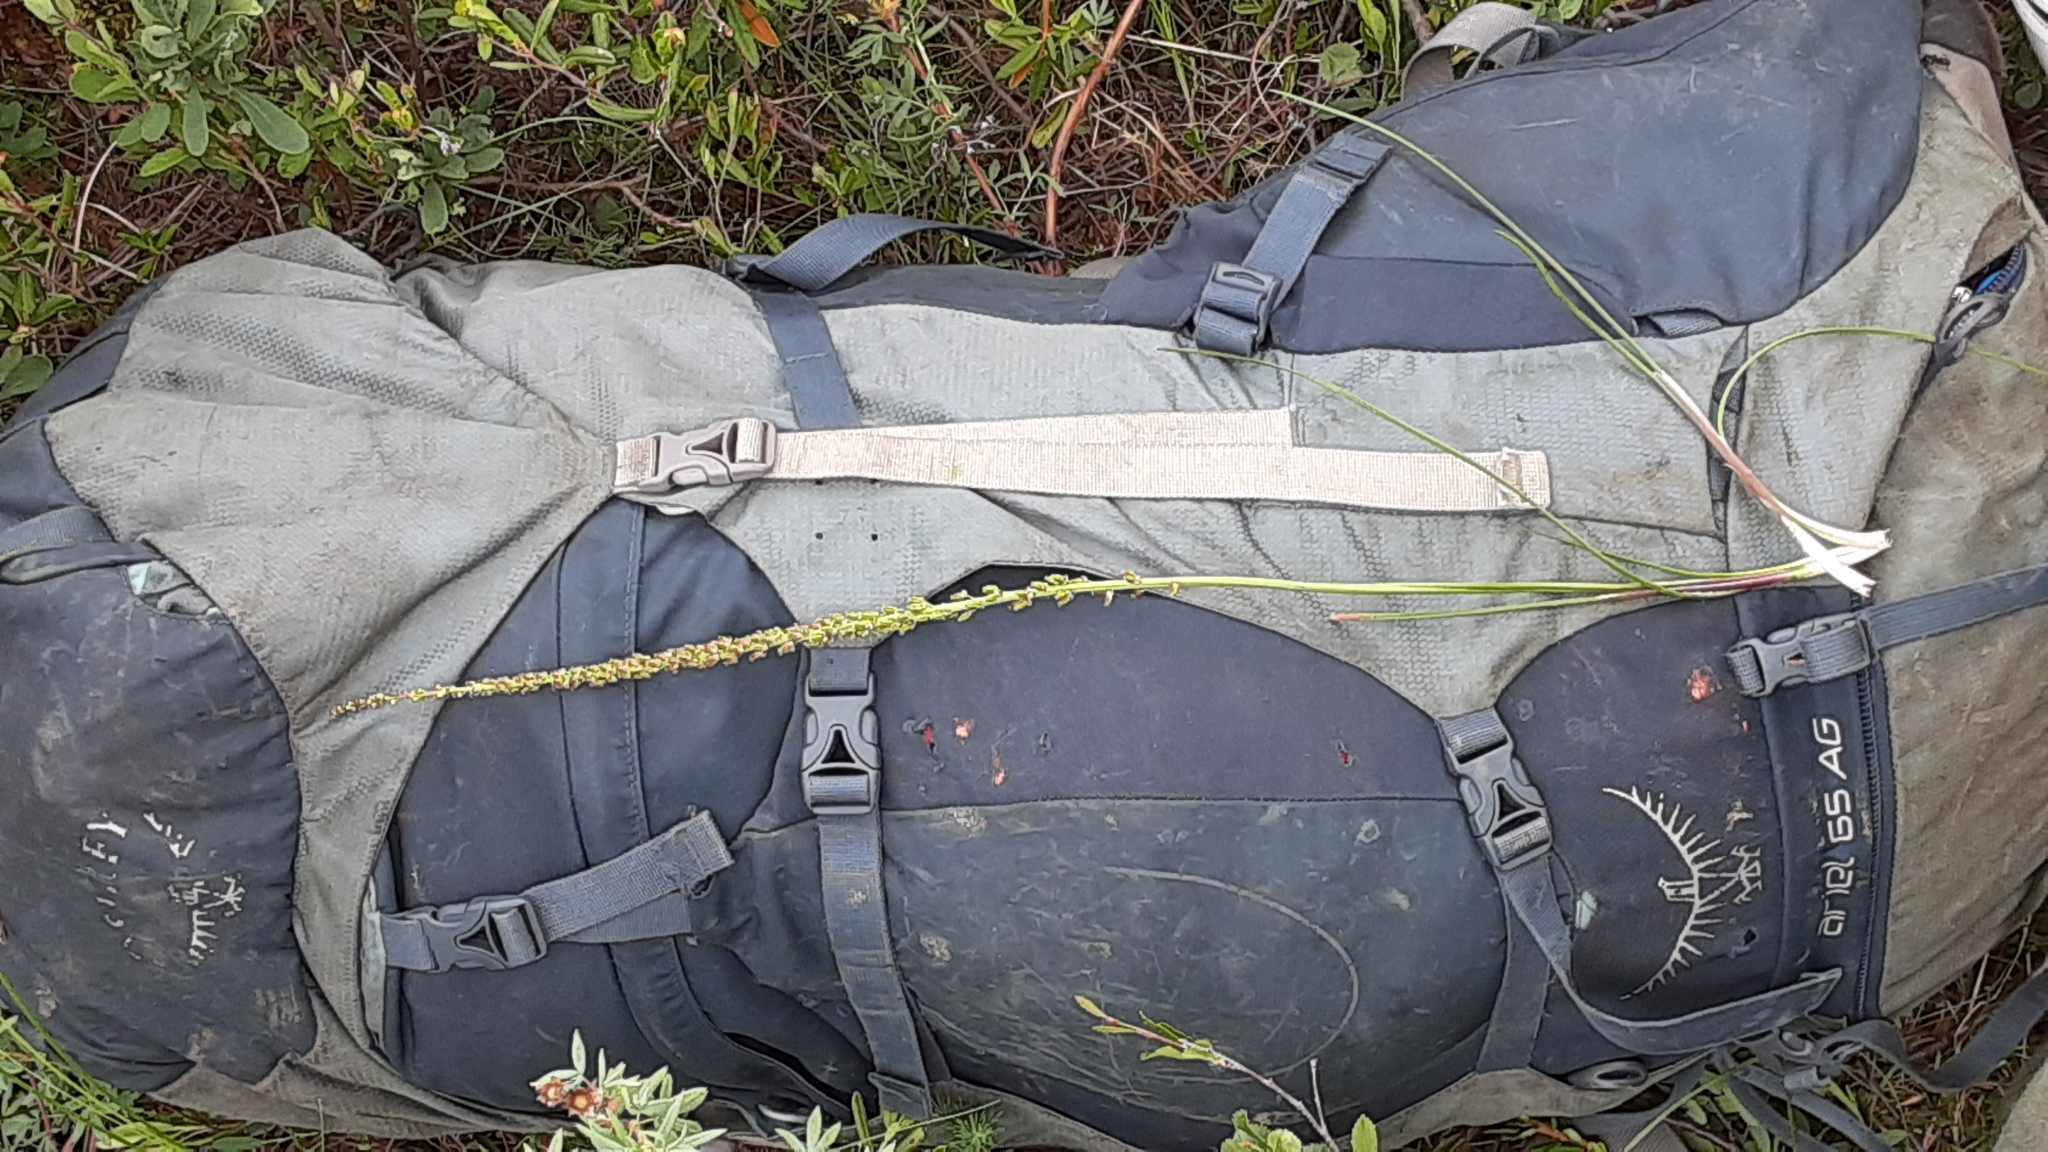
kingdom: Plantae
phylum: Tracheophyta
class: Liliopsida
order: Alismatales
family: Juncaginaceae
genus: Triglochin
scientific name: Triglochin maritima
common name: Sea arrowgrass
